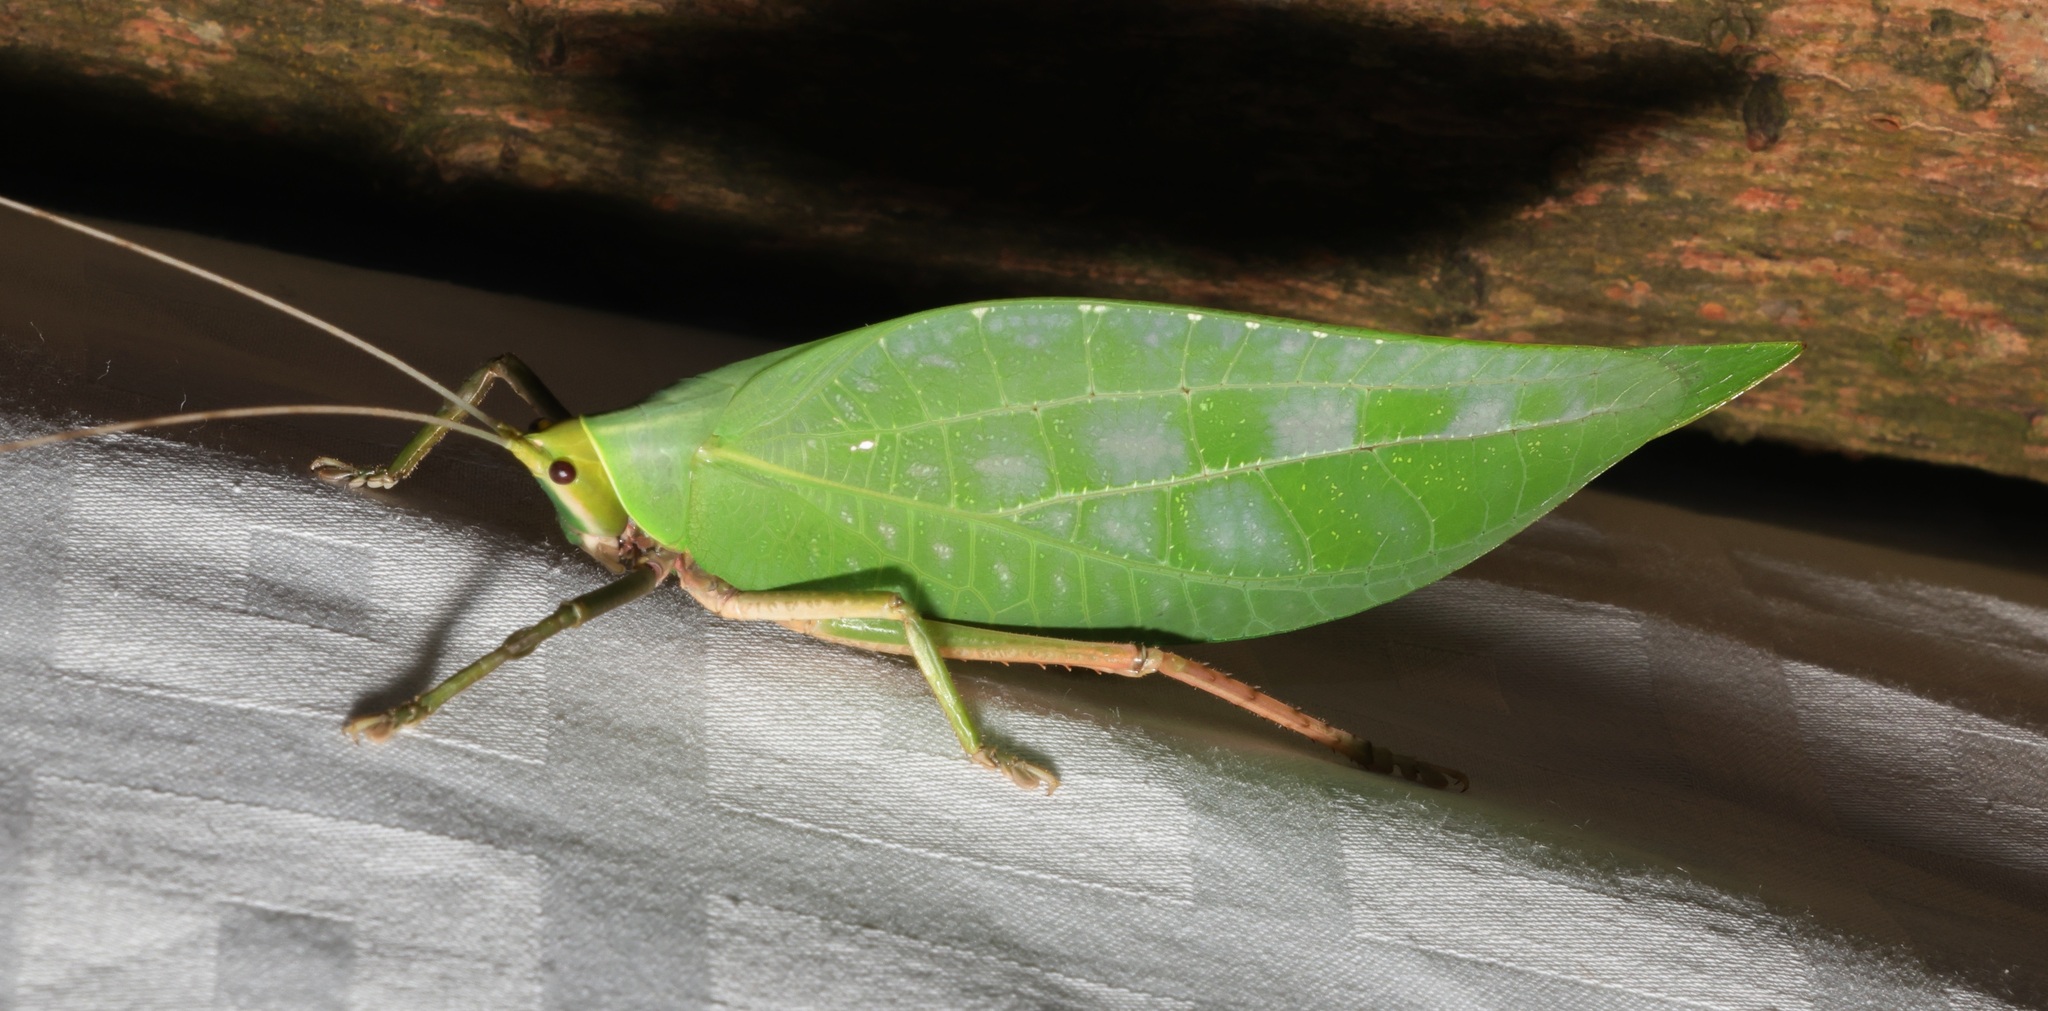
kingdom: Animalia
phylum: Arthropoda
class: Insecta
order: Orthoptera
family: Tettigoniidae
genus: Onomarchus
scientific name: Onomarchus uninotatus
